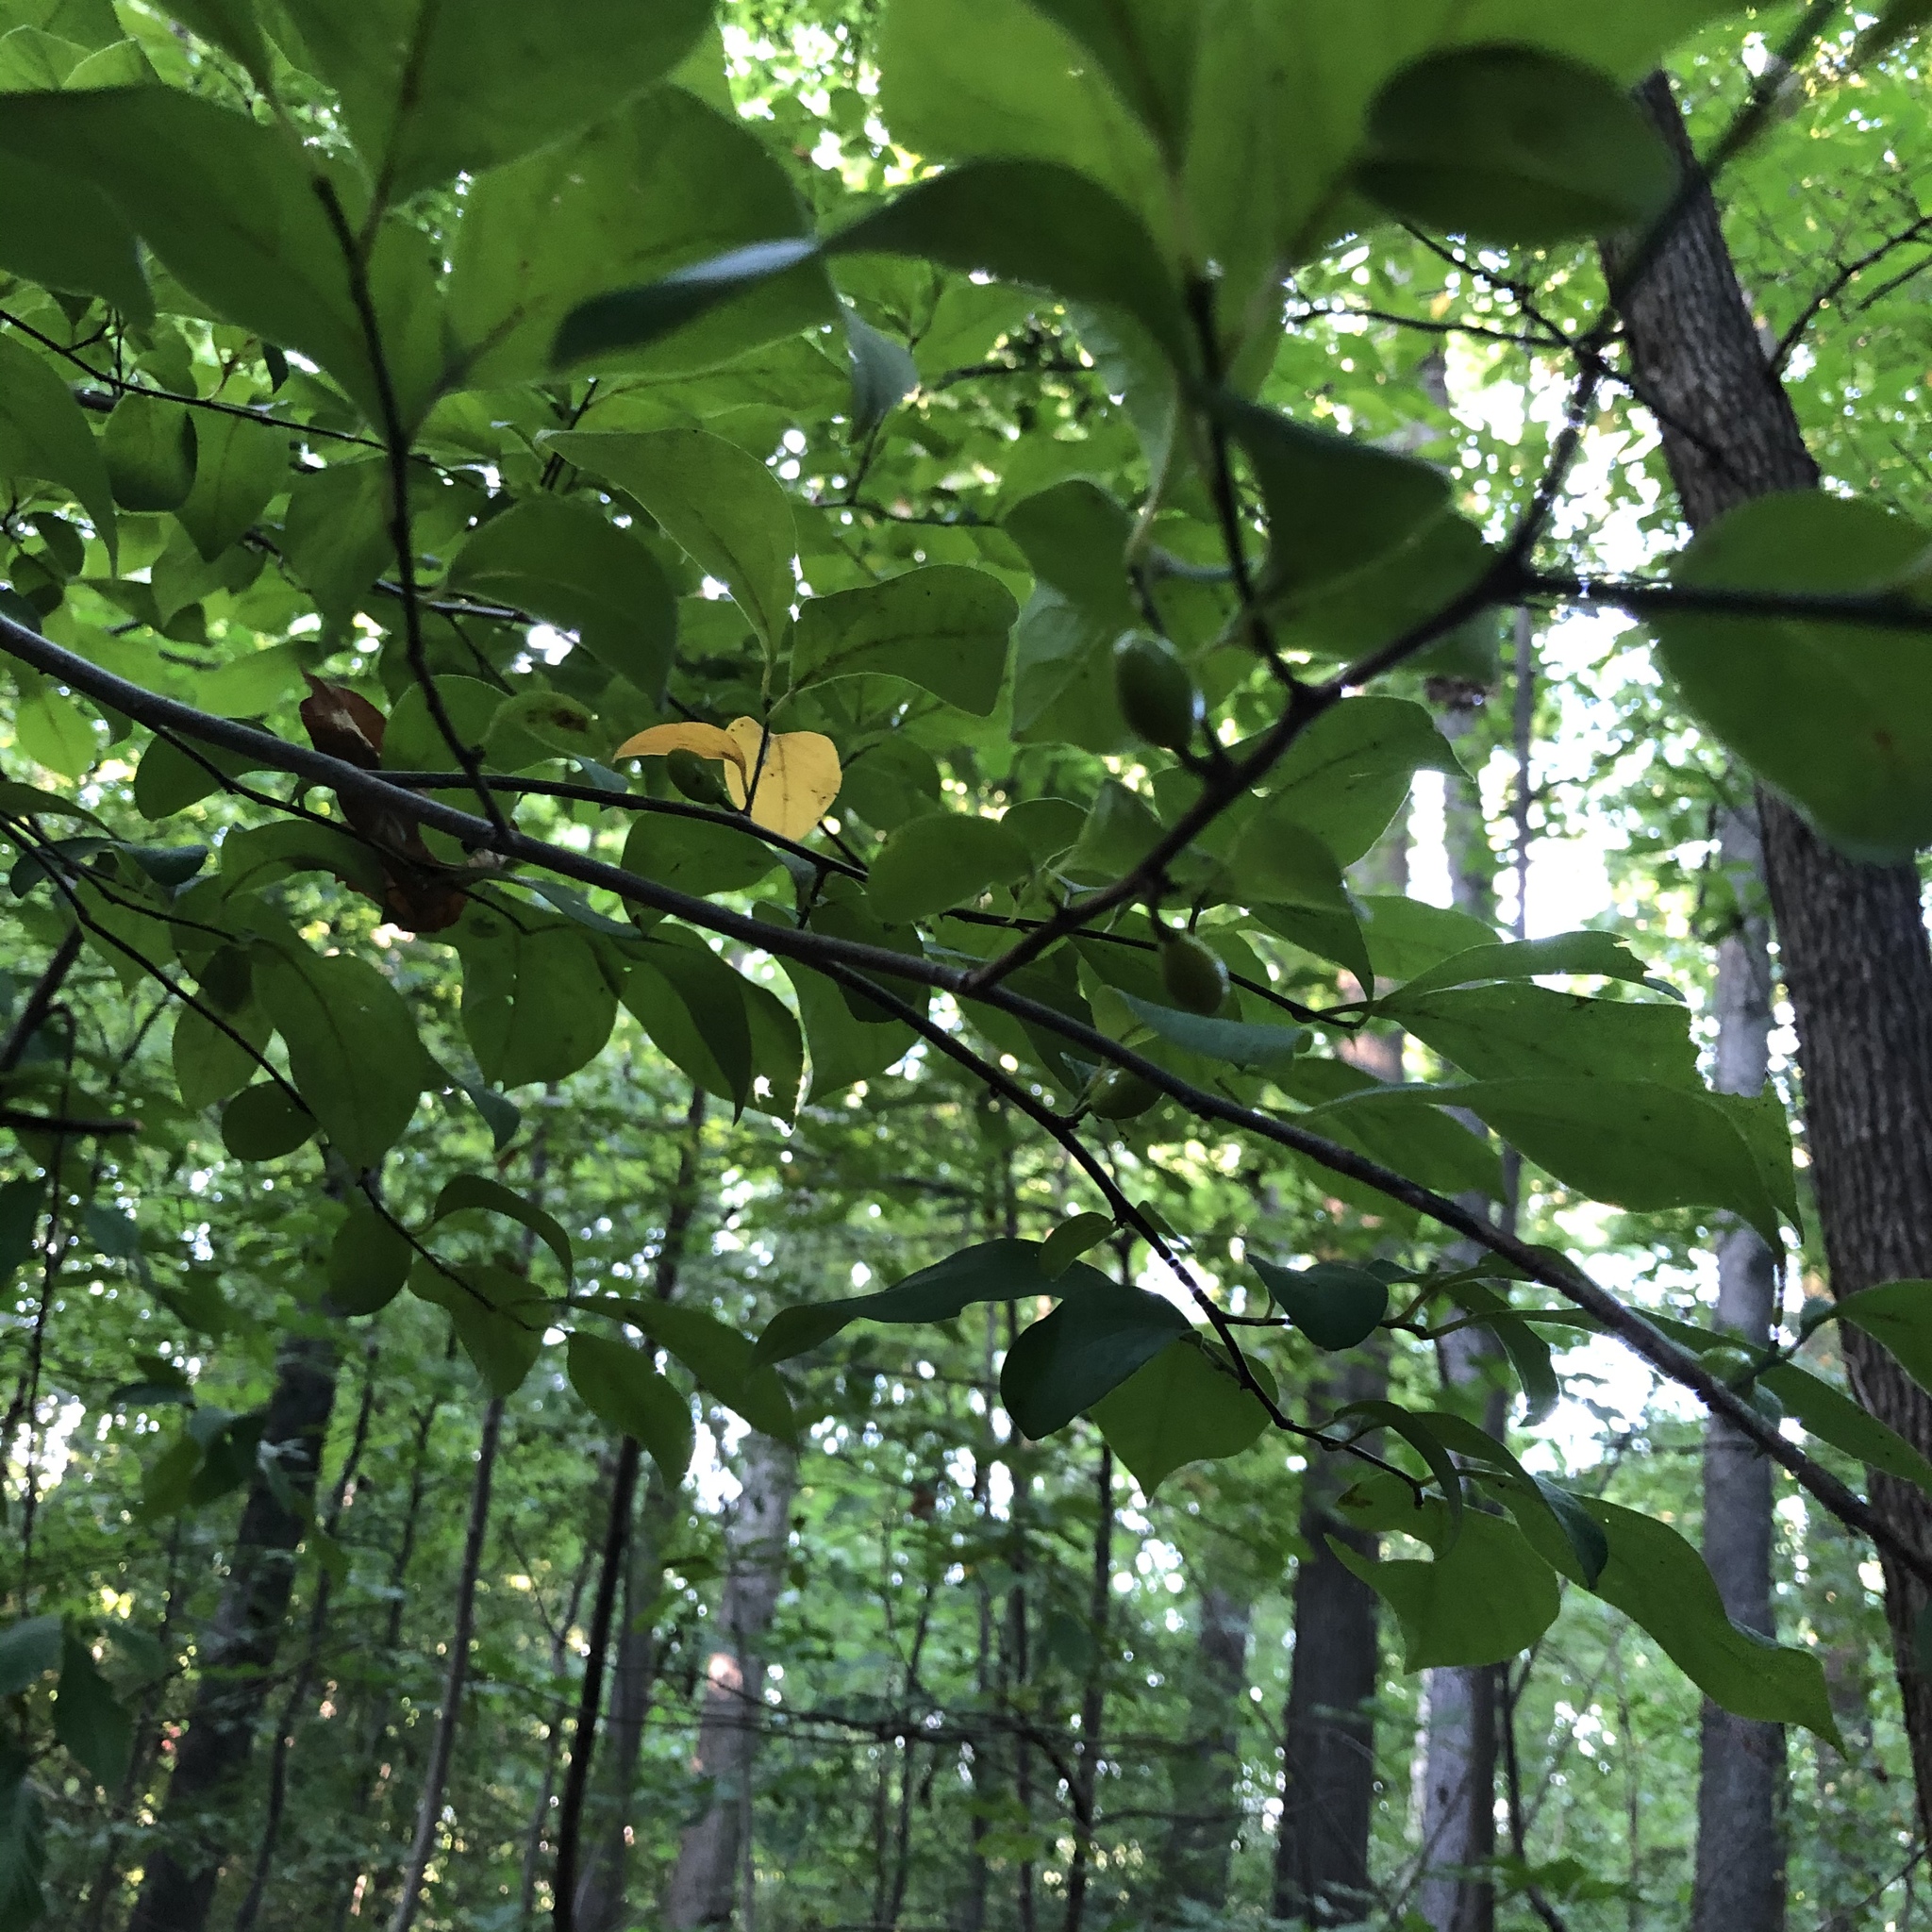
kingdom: Plantae
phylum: Tracheophyta
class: Magnoliopsida
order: Laurales
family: Lauraceae
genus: Lindera
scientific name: Lindera benzoin
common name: Spicebush
